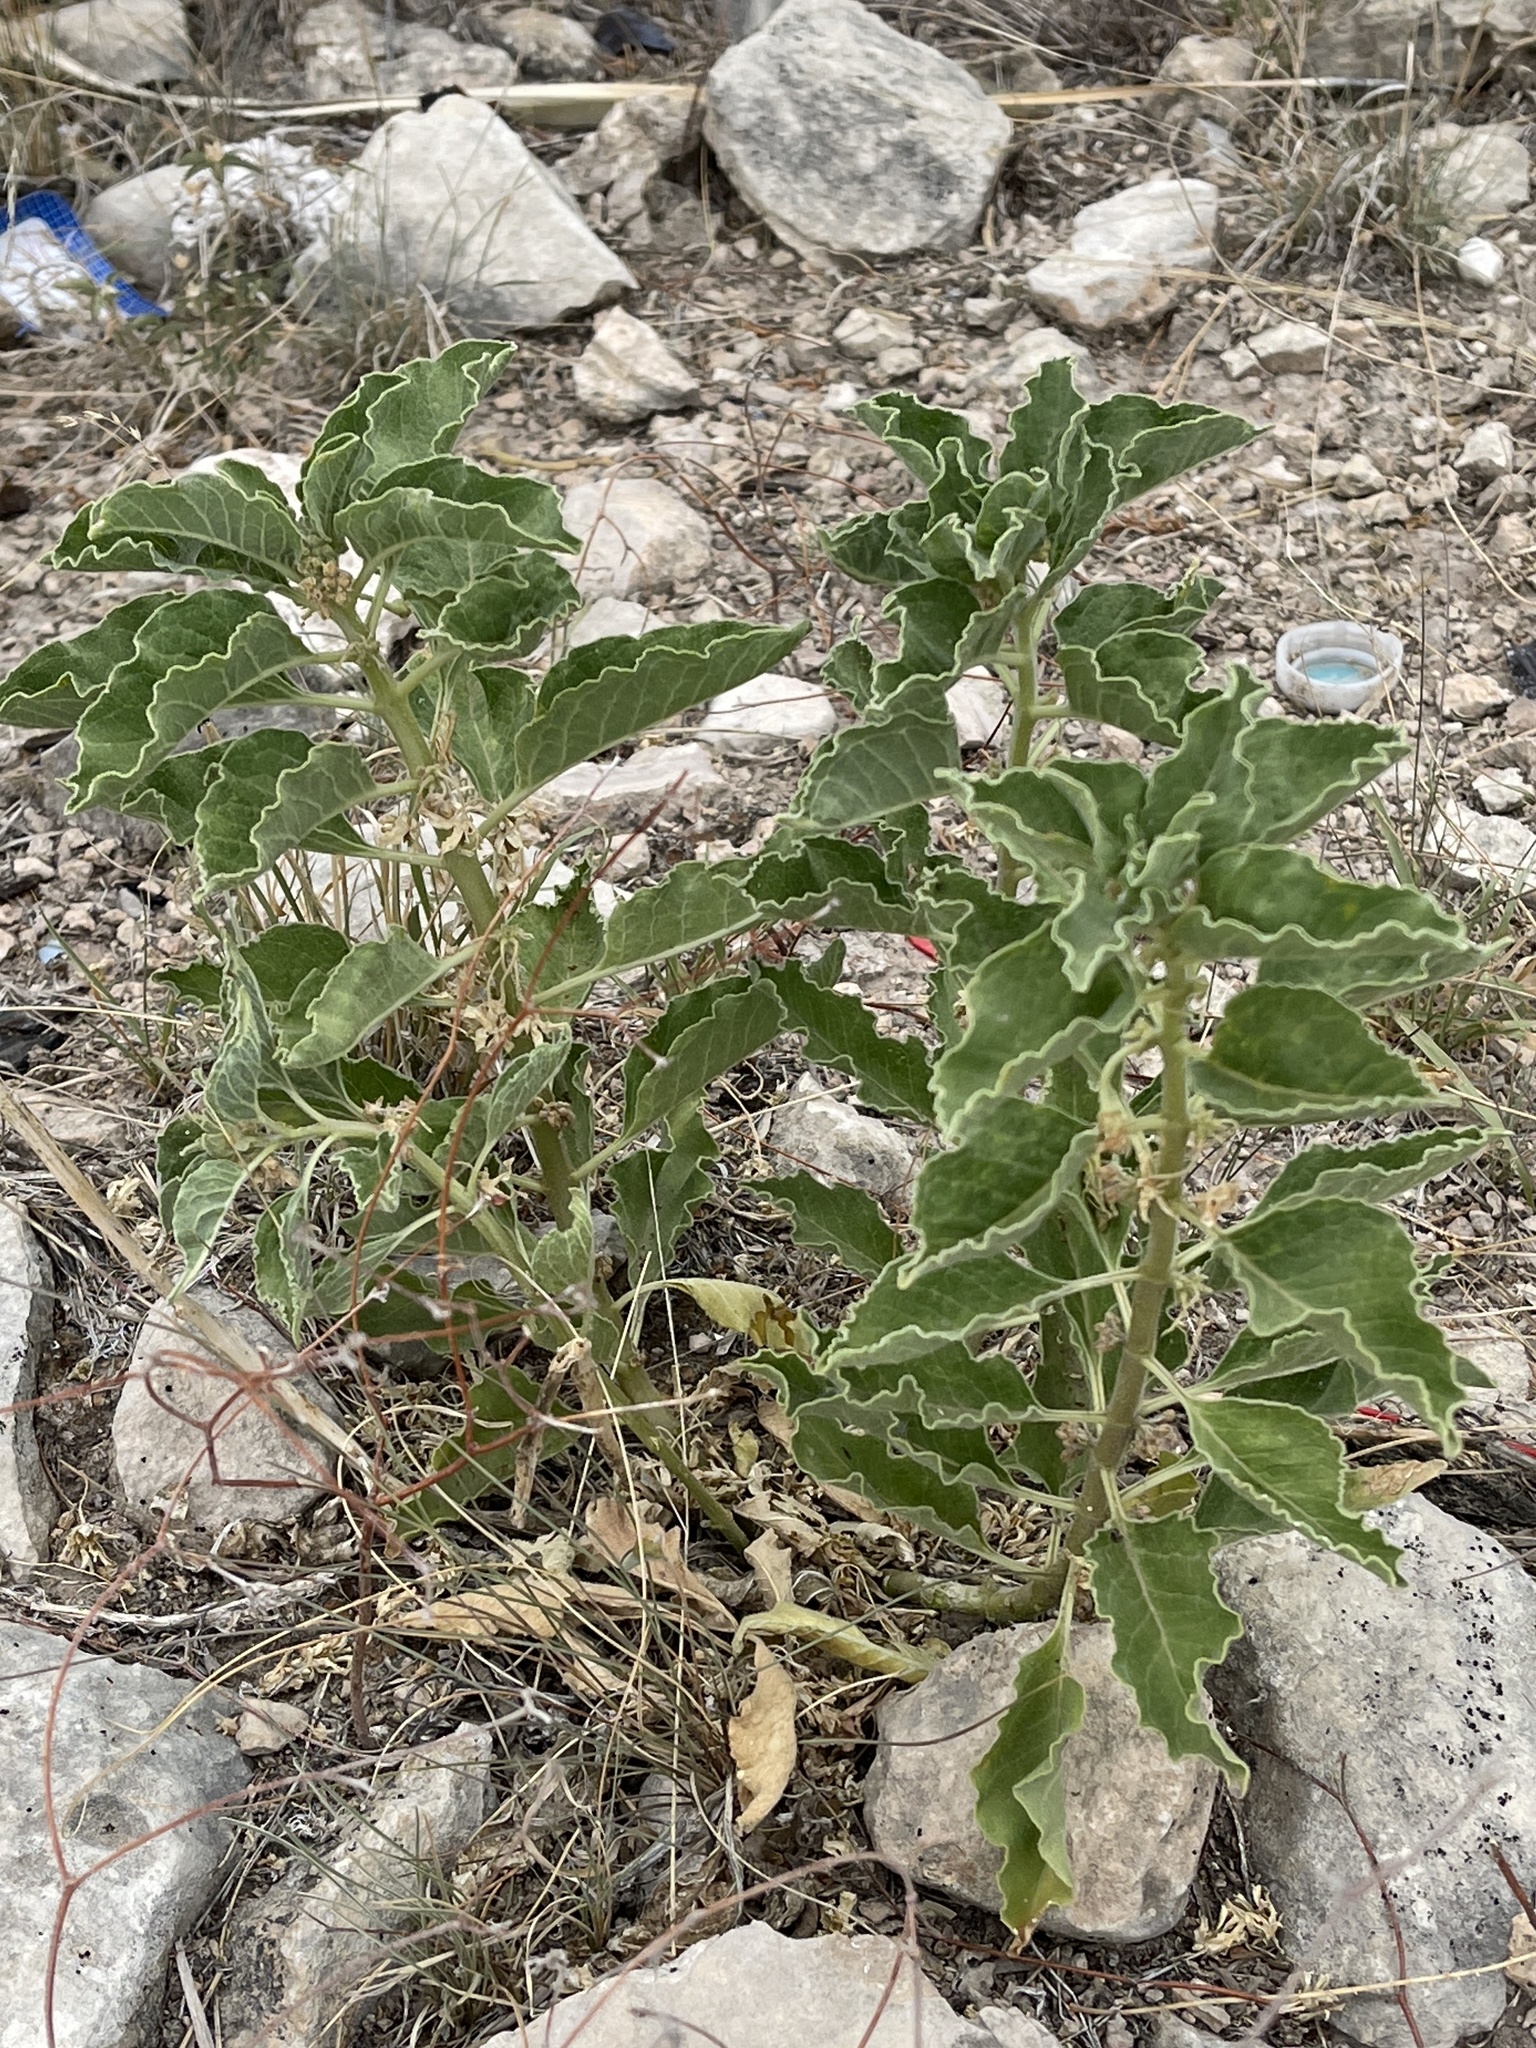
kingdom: Plantae
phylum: Tracheophyta
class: Magnoliopsida
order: Gentianales
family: Apocynaceae
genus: Asclepias
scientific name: Asclepias oenotheroides
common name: Zizotes milkweed
